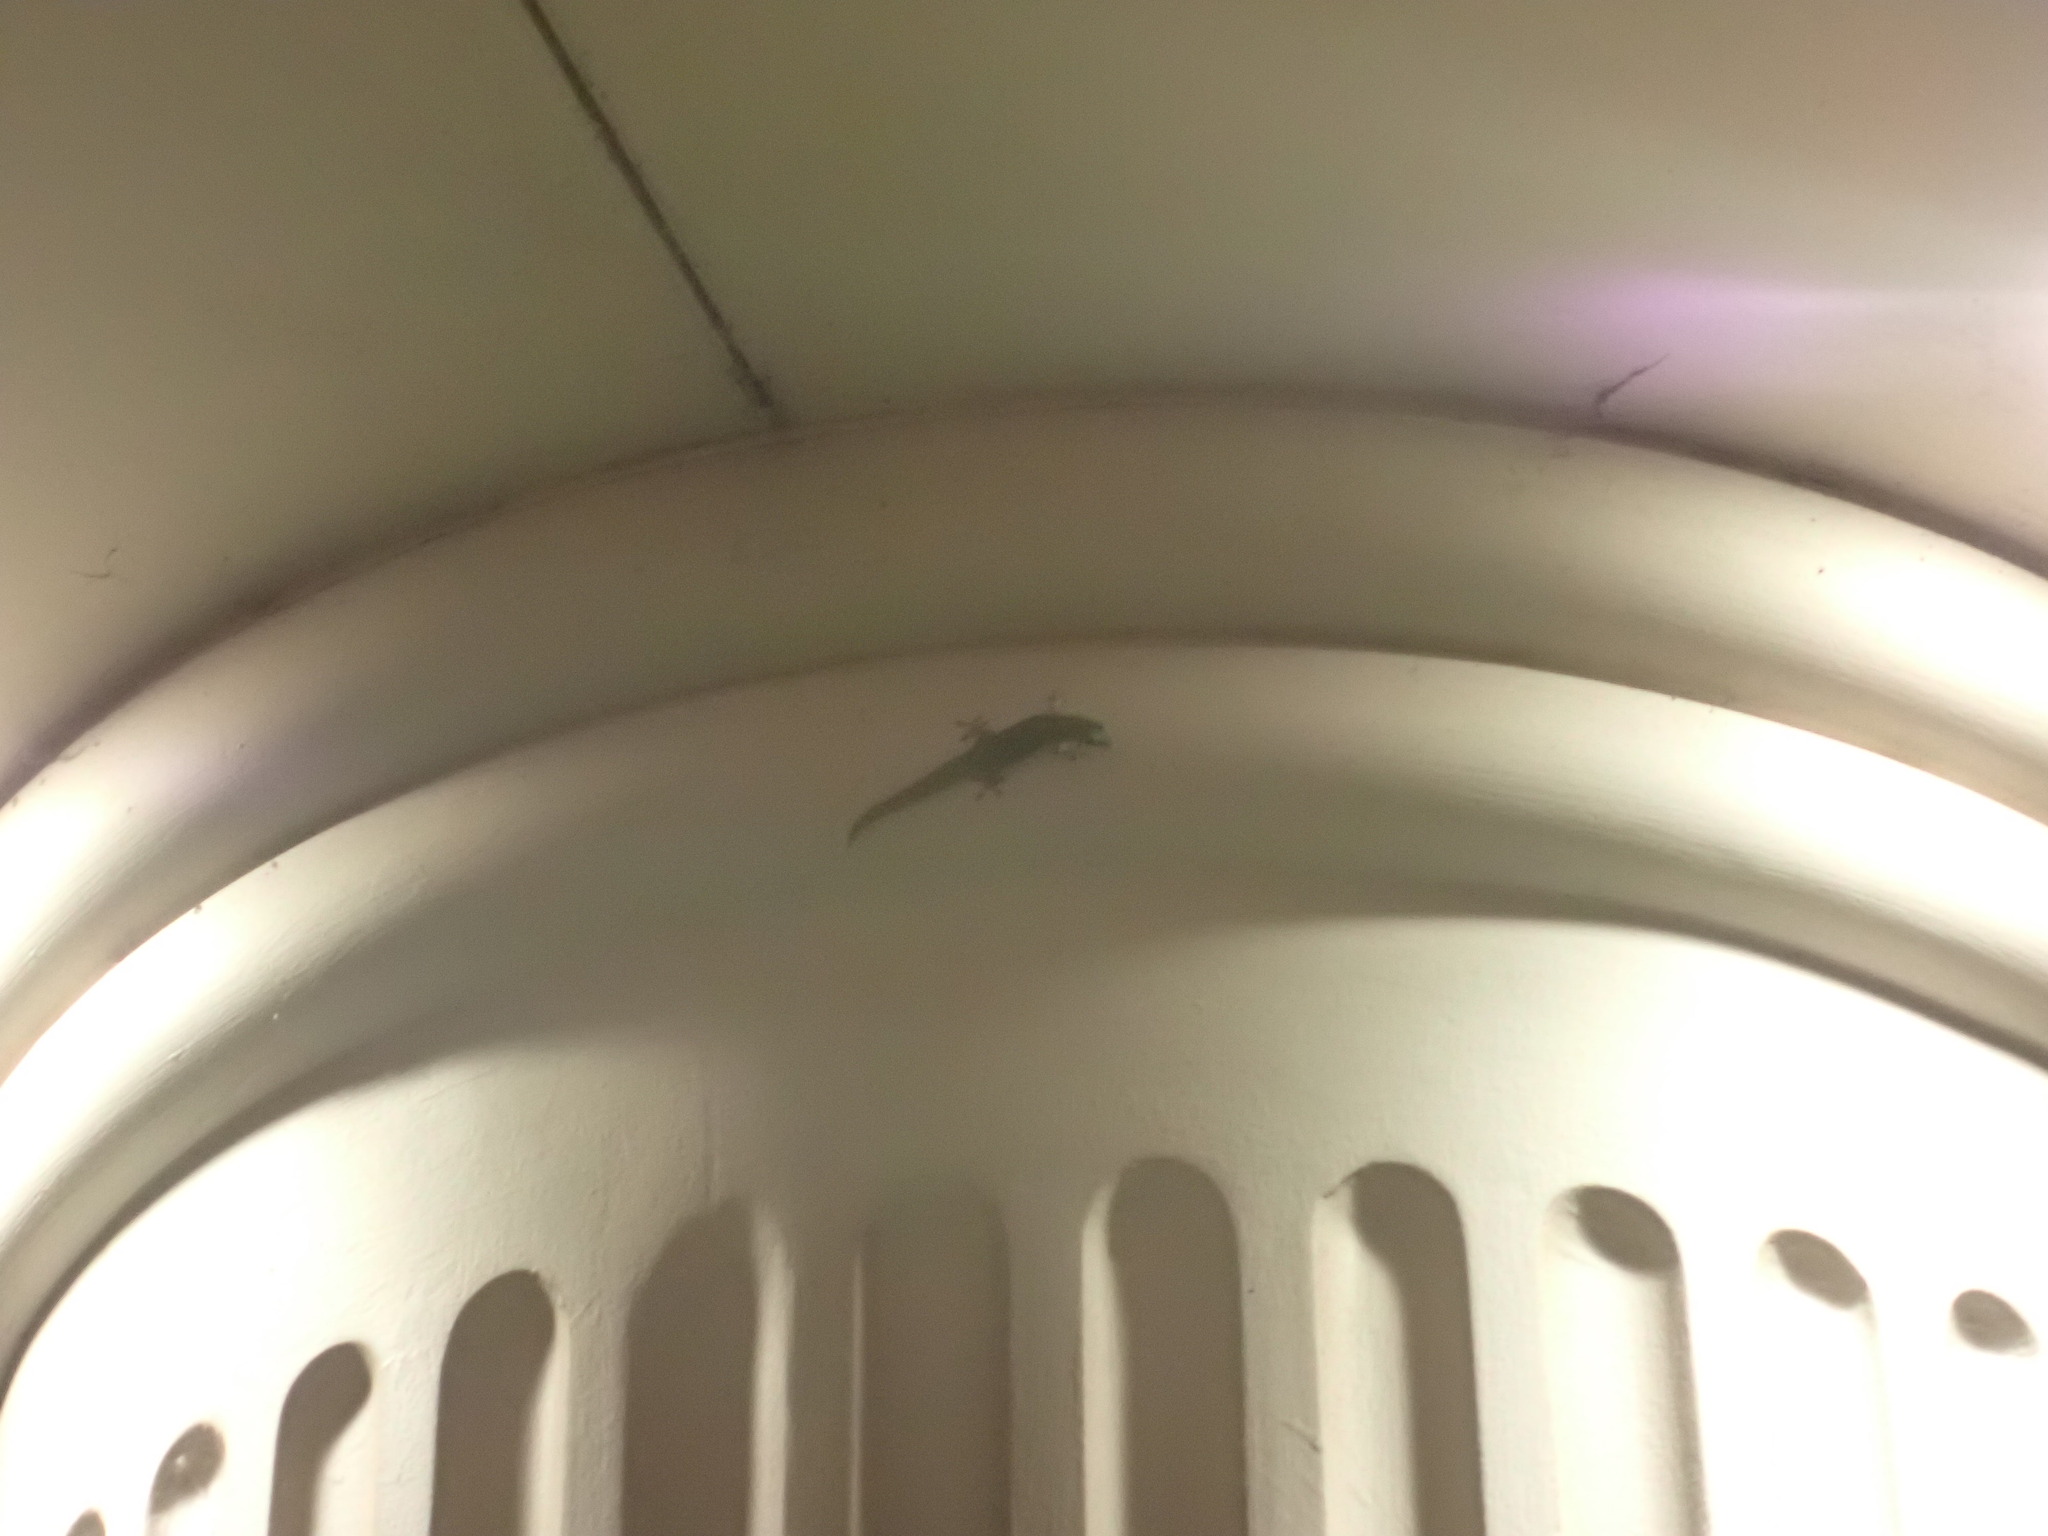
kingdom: Animalia
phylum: Chordata
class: Squamata
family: Gekkonidae
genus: Phelsuma
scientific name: Phelsuma laticauda
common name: Gold dust day gecko
